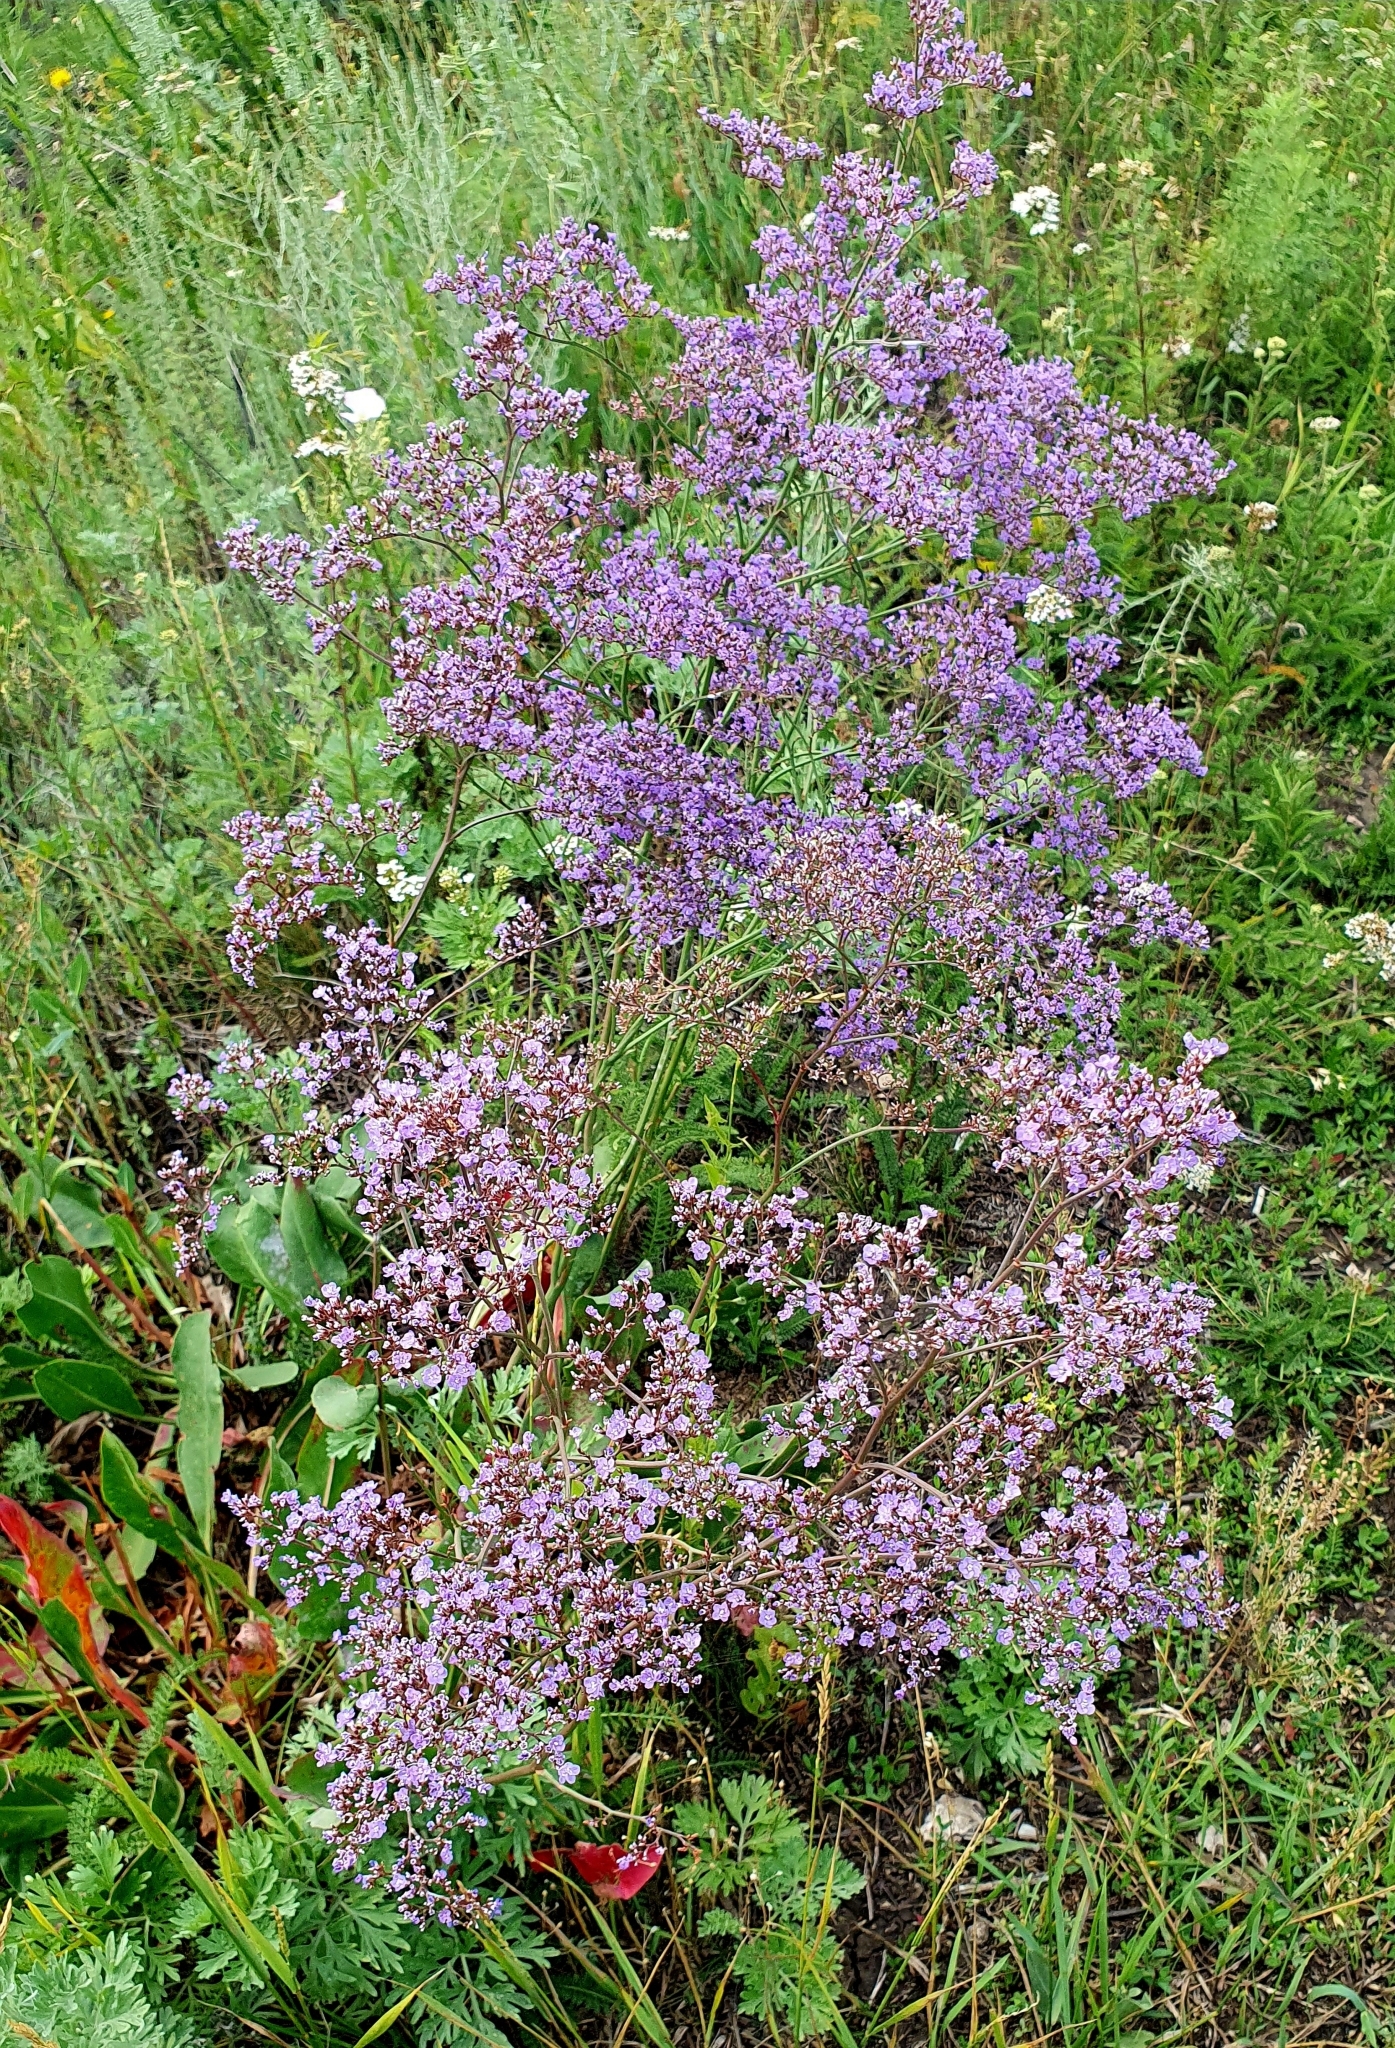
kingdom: Plantae
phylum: Tracheophyta
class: Magnoliopsida
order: Caryophyllales
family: Plumbaginaceae
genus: Limonium
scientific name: Limonium gmelini
